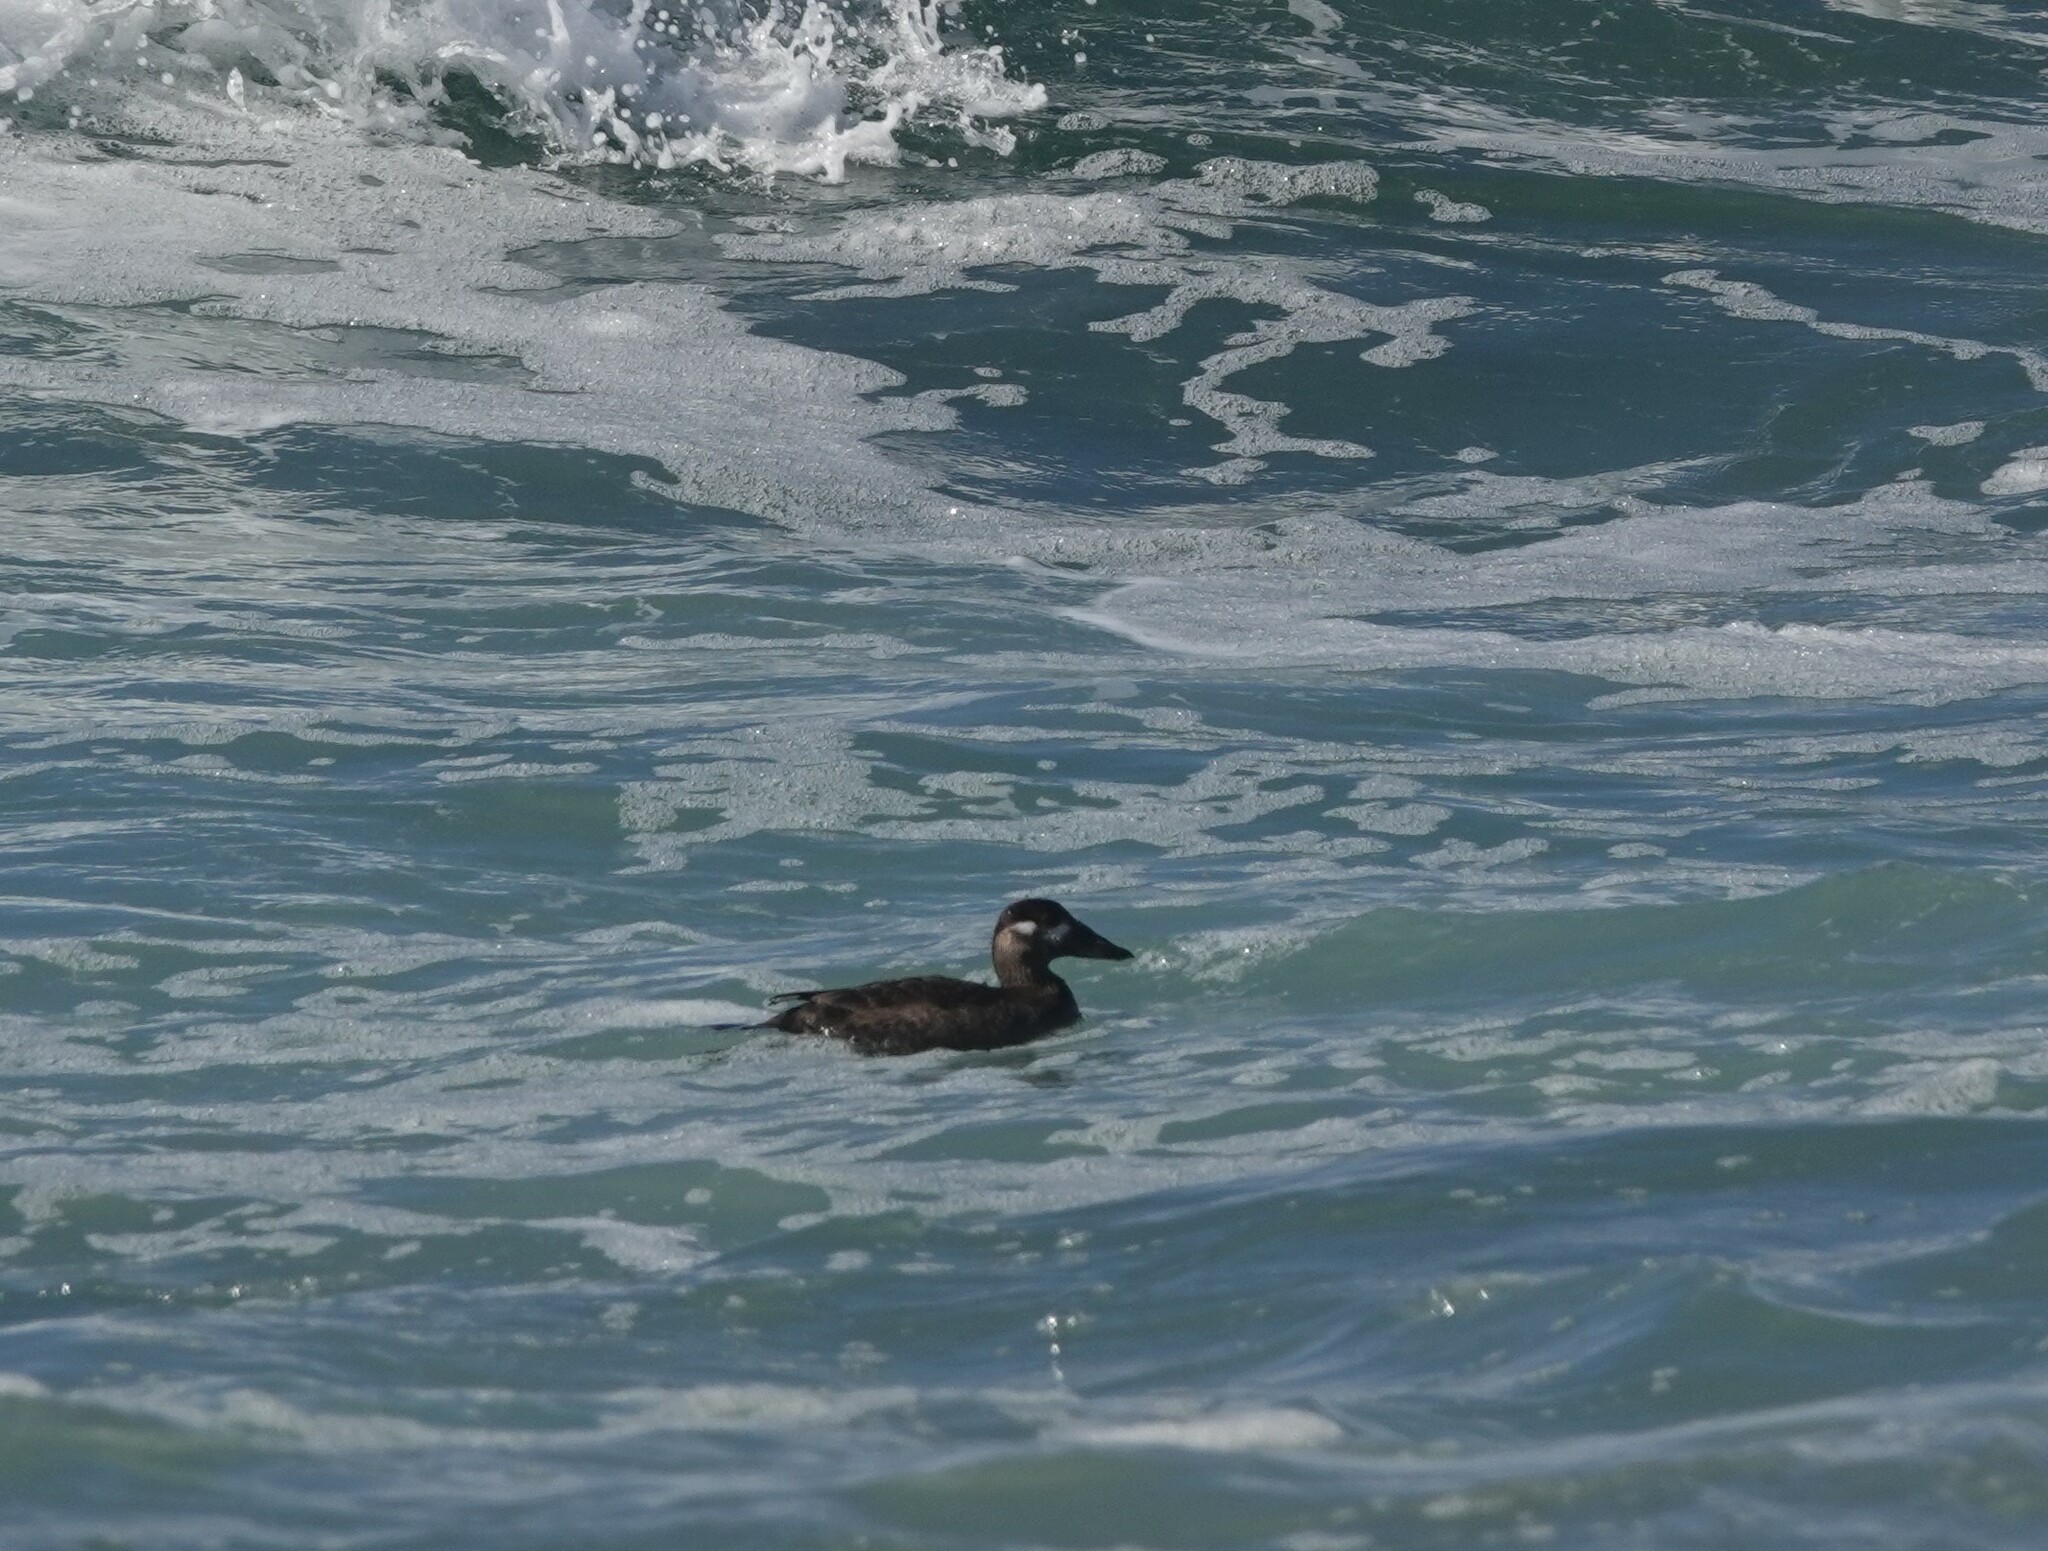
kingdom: Animalia
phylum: Chordata
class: Aves
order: Anseriformes
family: Anatidae
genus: Melanitta
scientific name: Melanitta perspicillata
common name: Surf scoter
